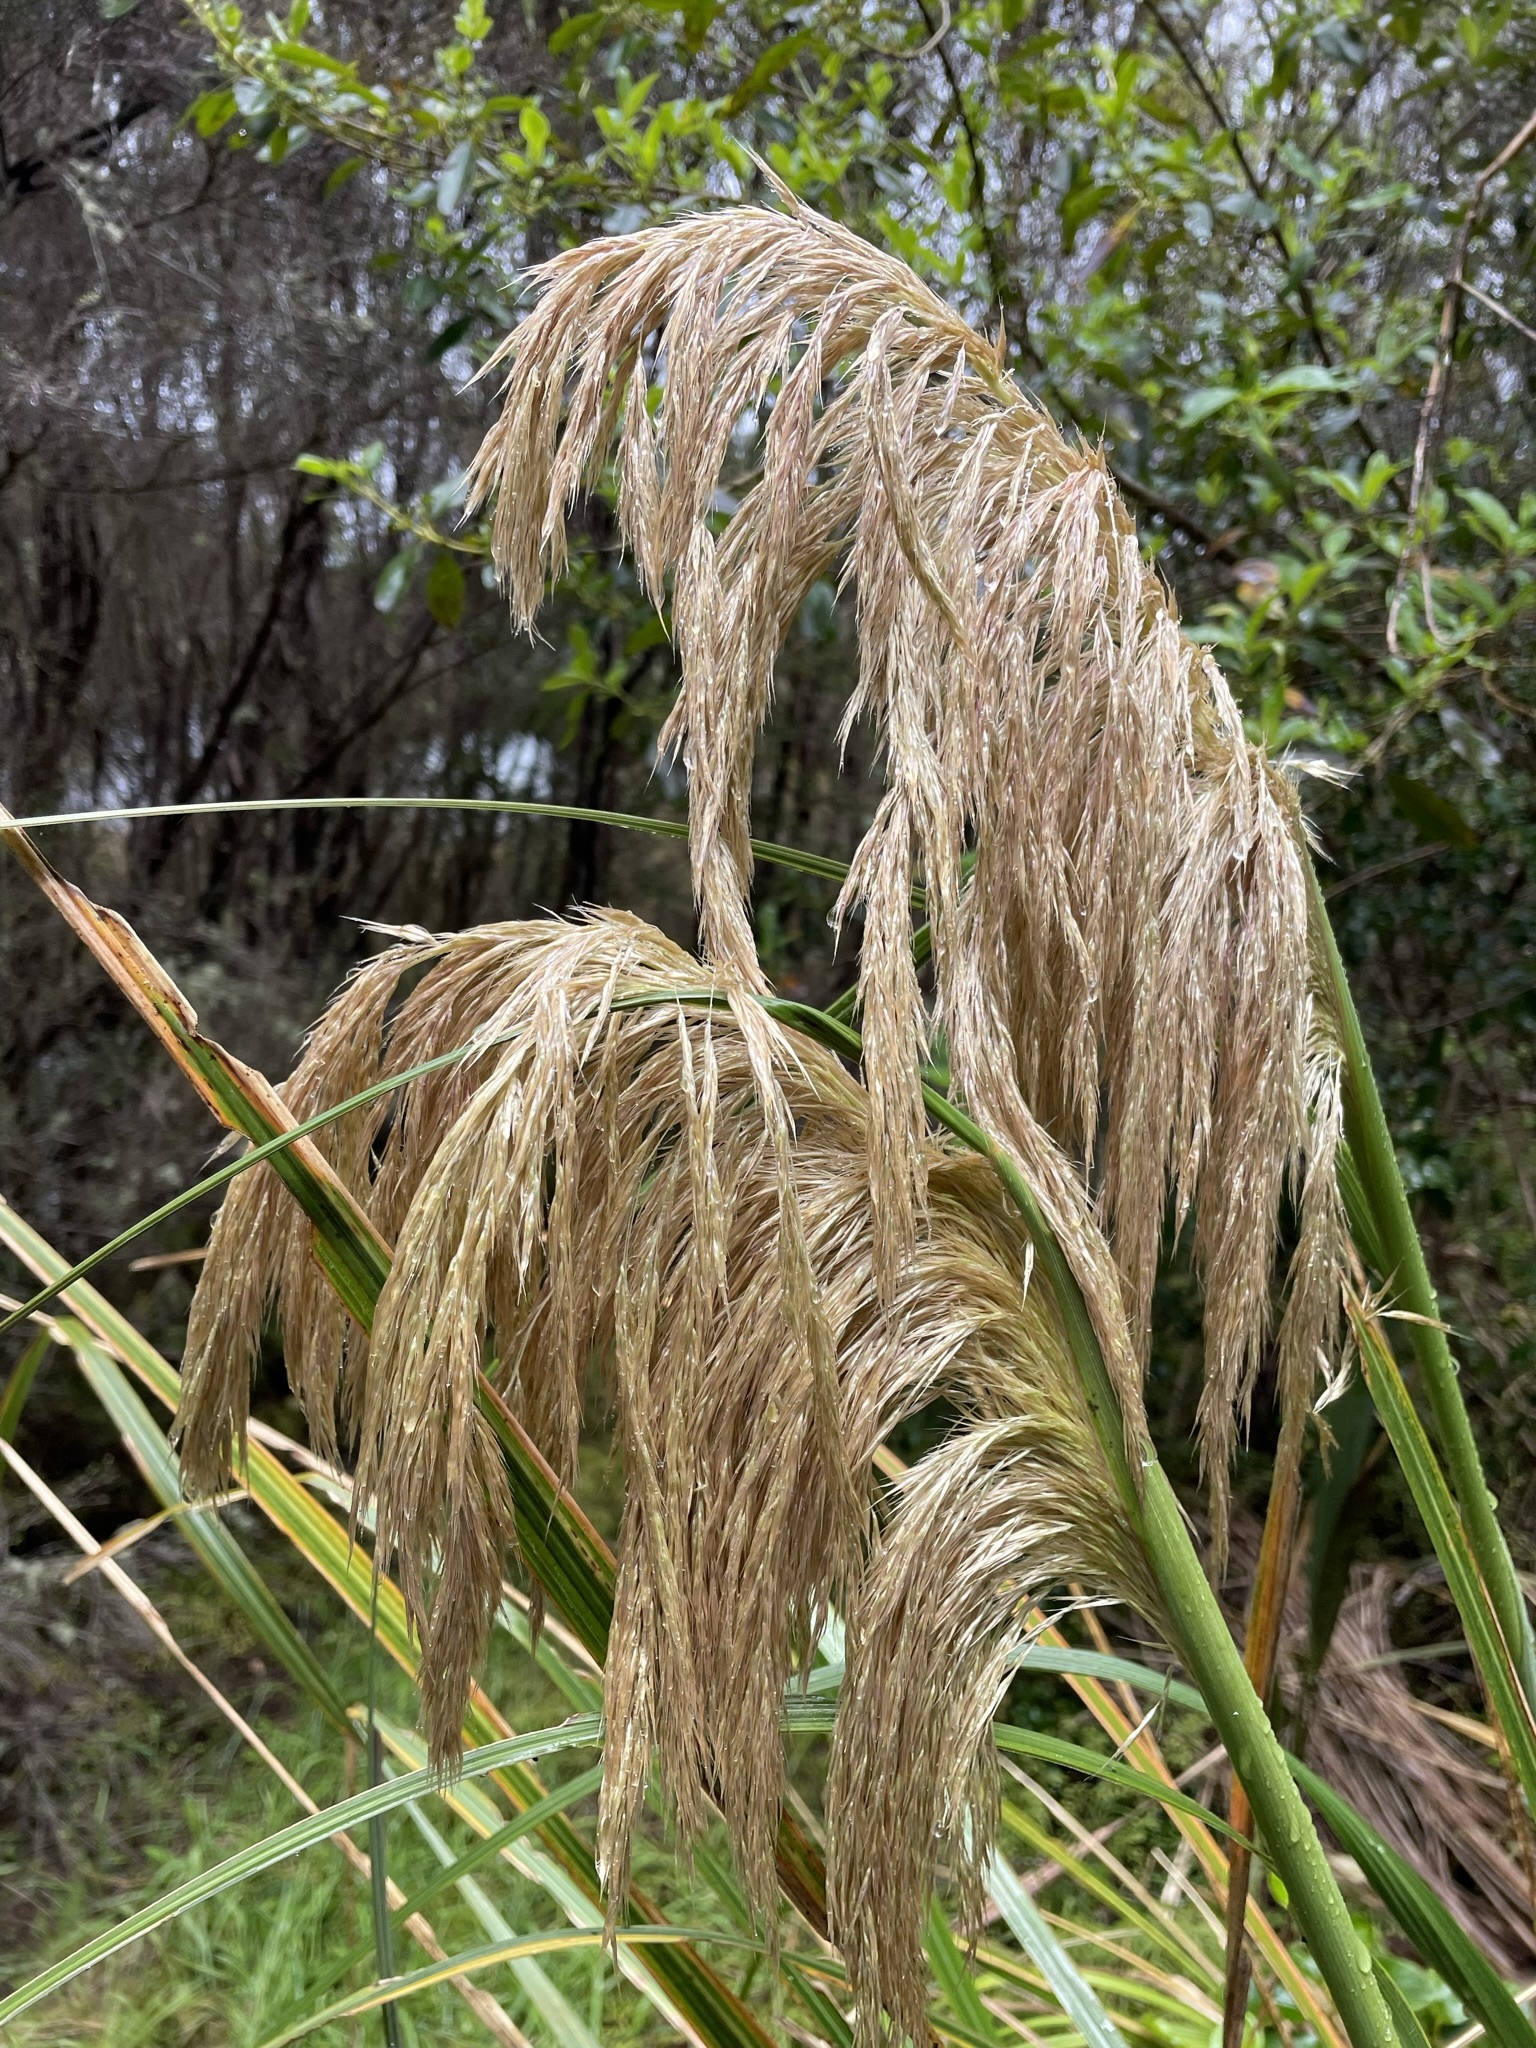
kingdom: Plantae
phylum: Tracheophyta
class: Liliopsida
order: Poales
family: Poaceae
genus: Austroderia
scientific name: Austroderia fulvida
